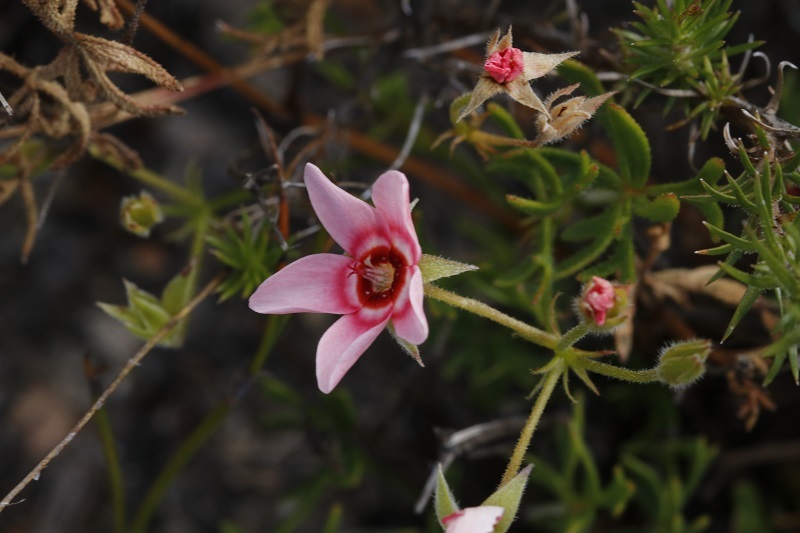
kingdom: Plantae
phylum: Tracheophyta
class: Magnoliopsida
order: Geraniales
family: Geraniaceae
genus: Pelargonium
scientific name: Pelargonium incarnatum
